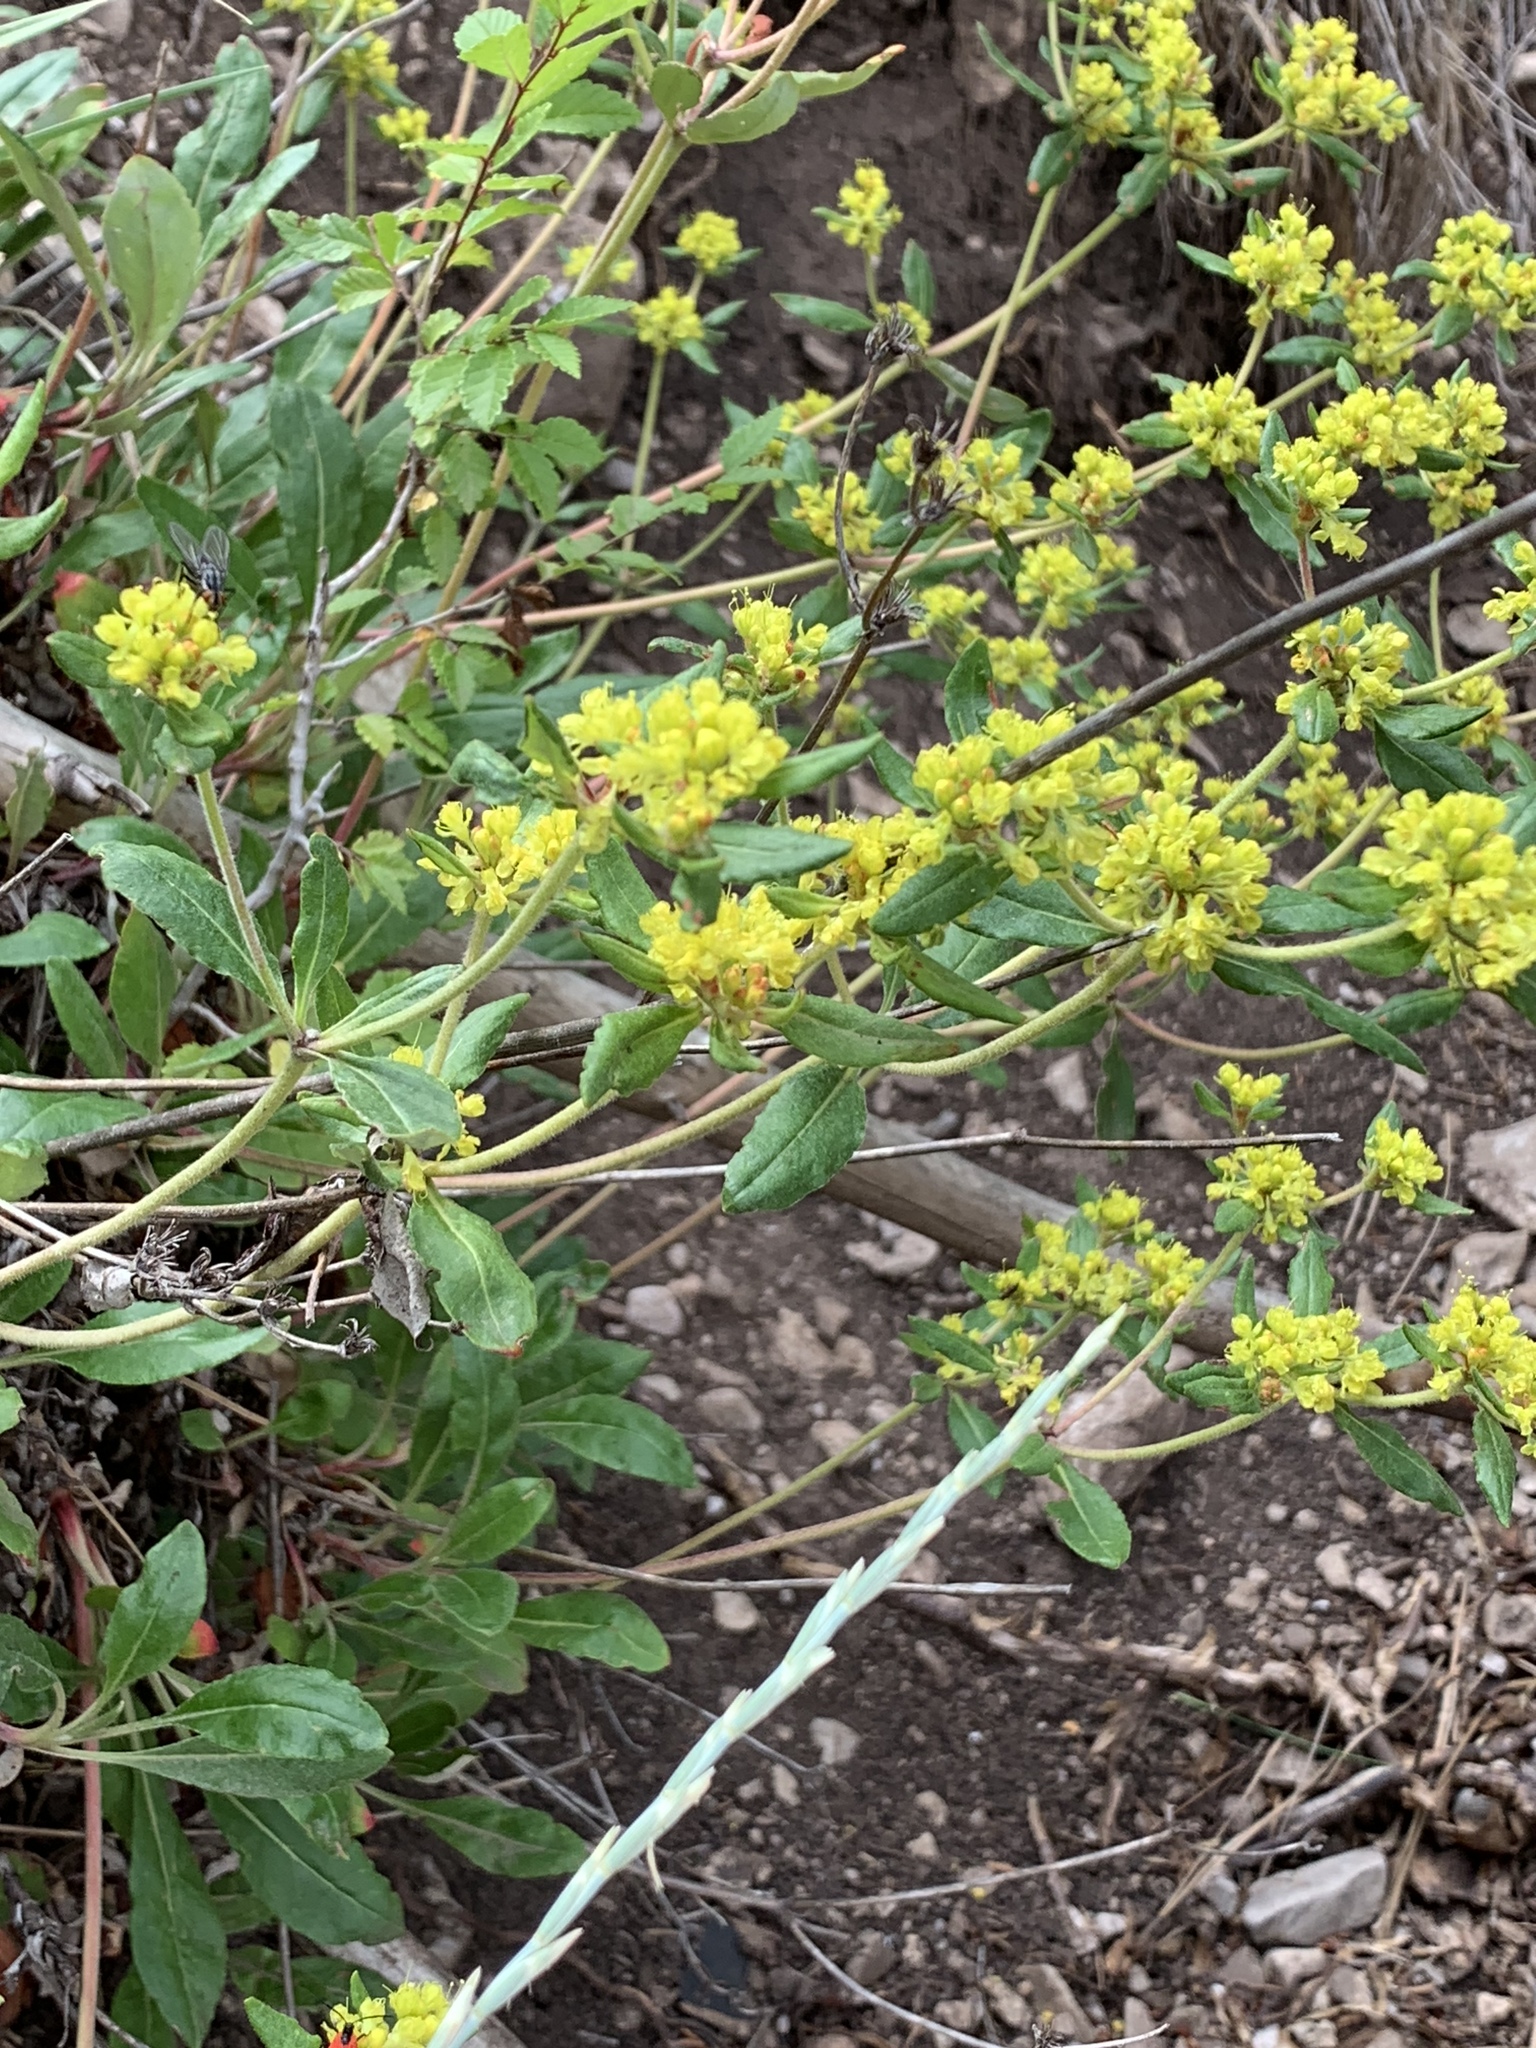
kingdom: Plantae
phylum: Tracheophyta
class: Magnoliopsida
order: Caryophyllales
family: Polygonaceae
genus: Eriogonum
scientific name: Eriogonum wootonii
